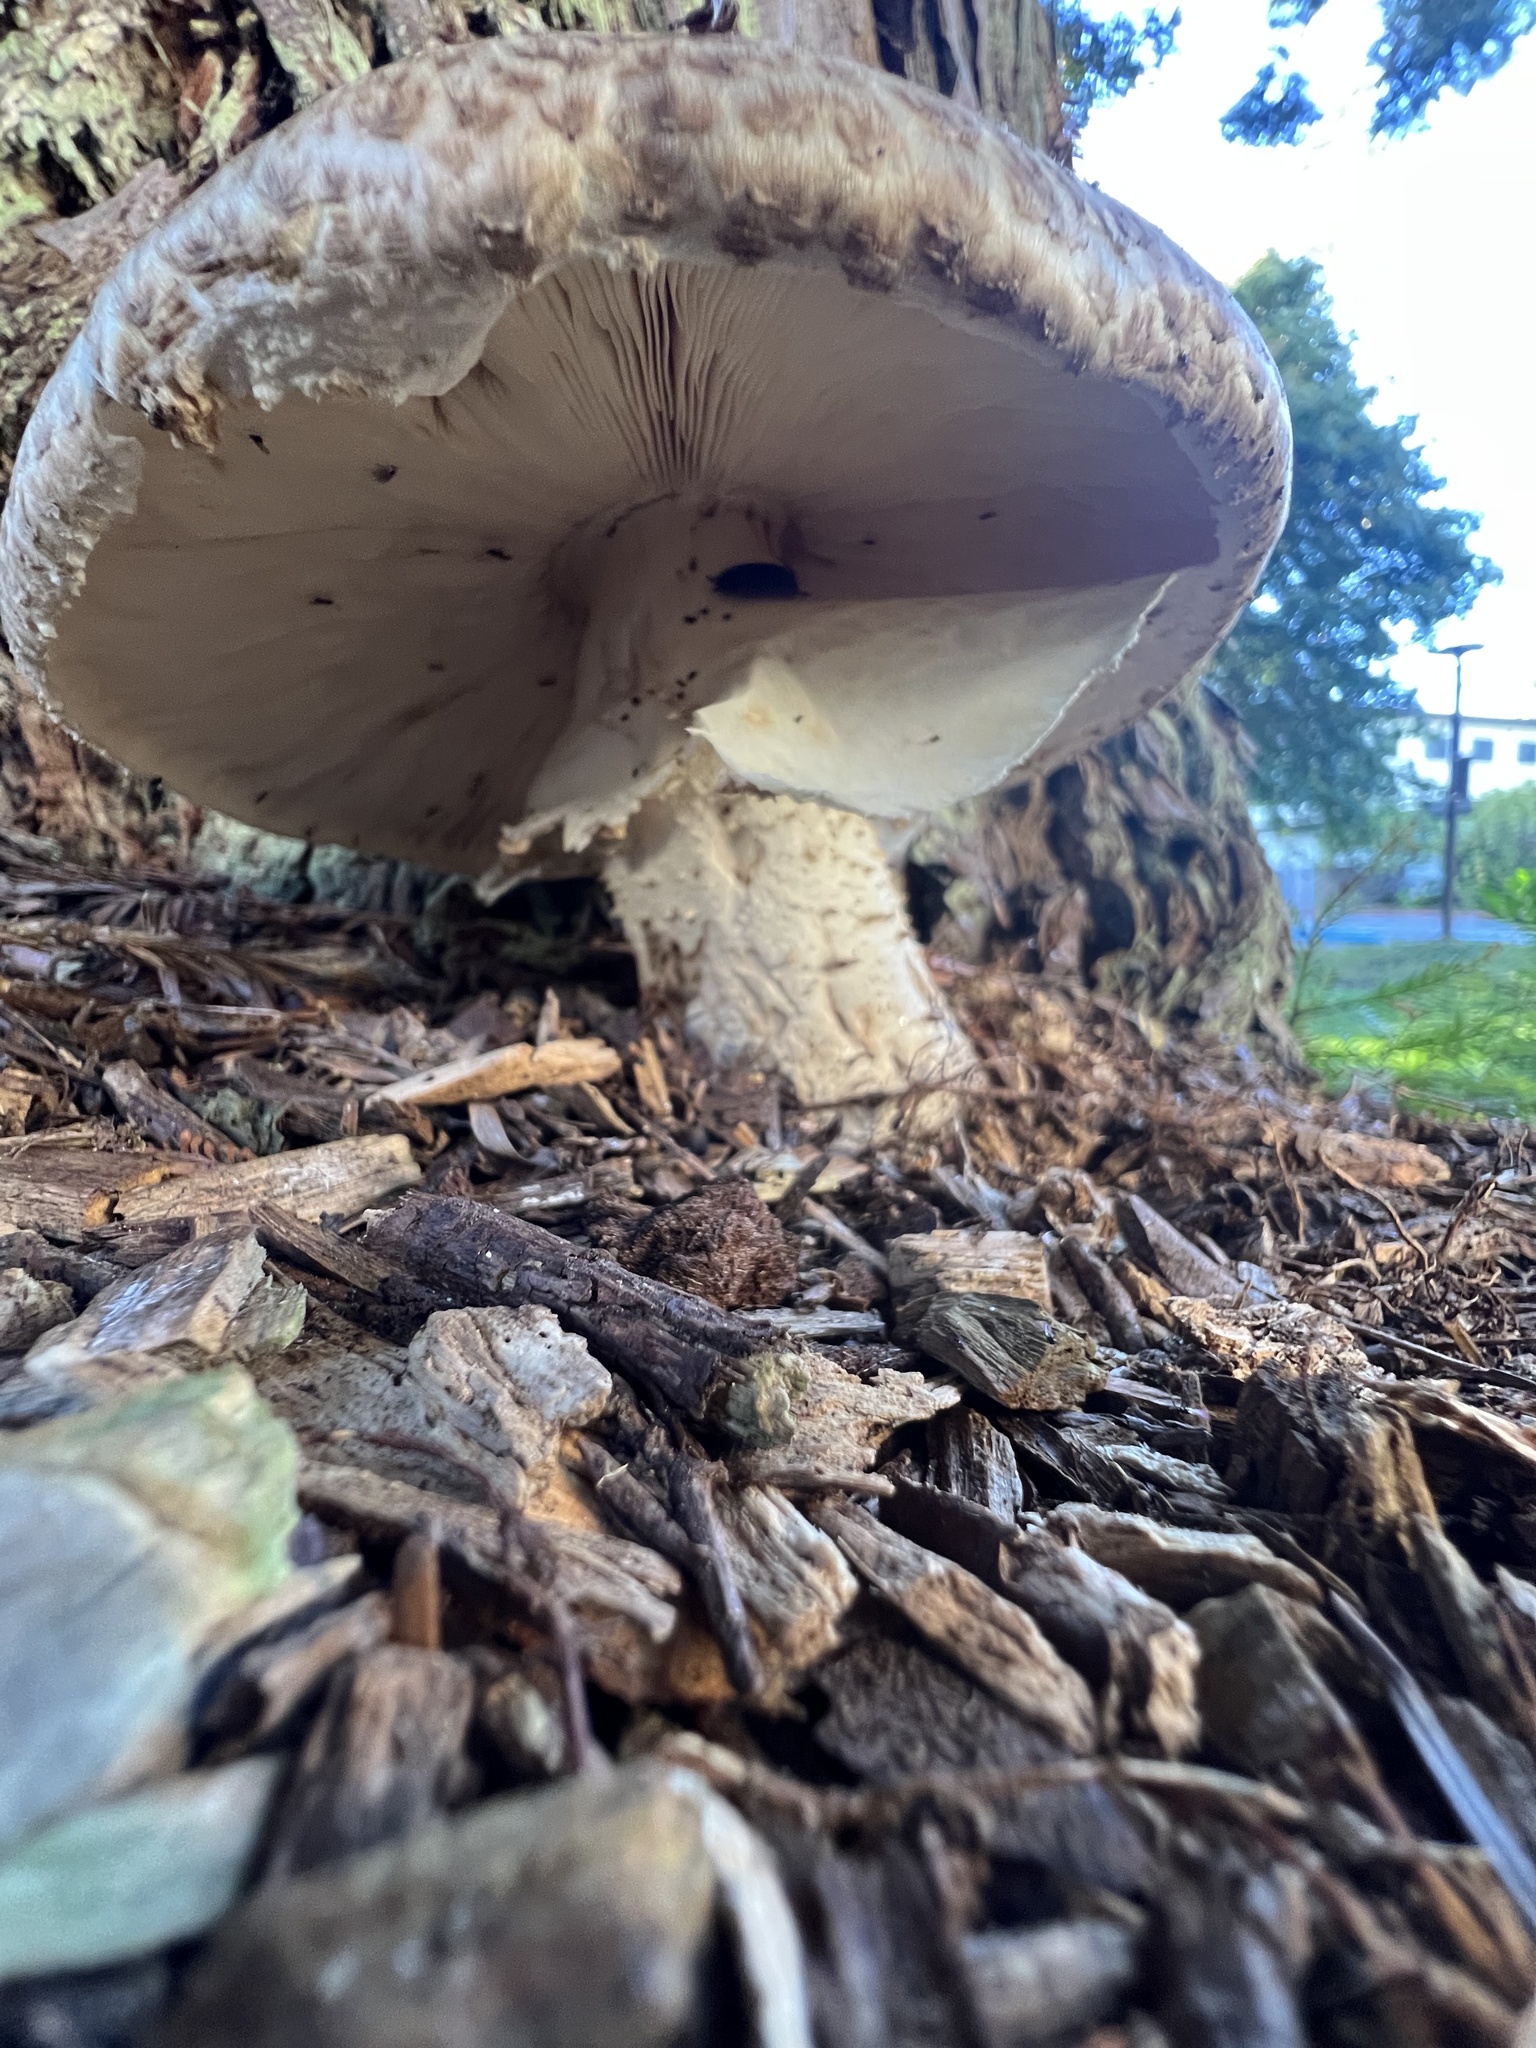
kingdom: Fungi
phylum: Basidiomycota
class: Agaricomycetes
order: Agaricales
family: Agaricaceae
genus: Agaricus
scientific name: Agaricus augustus
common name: Prince
